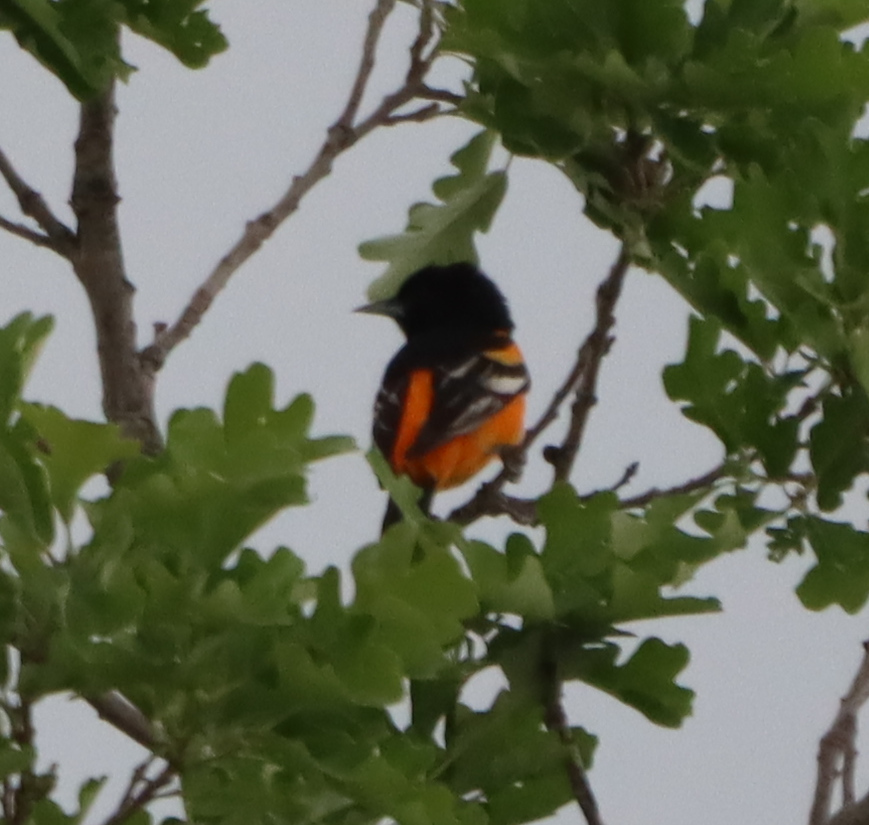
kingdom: Animalia
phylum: Chordata
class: Aves
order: Passeriformes
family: Icteridae
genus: Icterus
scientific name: Icterus galbula
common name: Baltimore oriole
